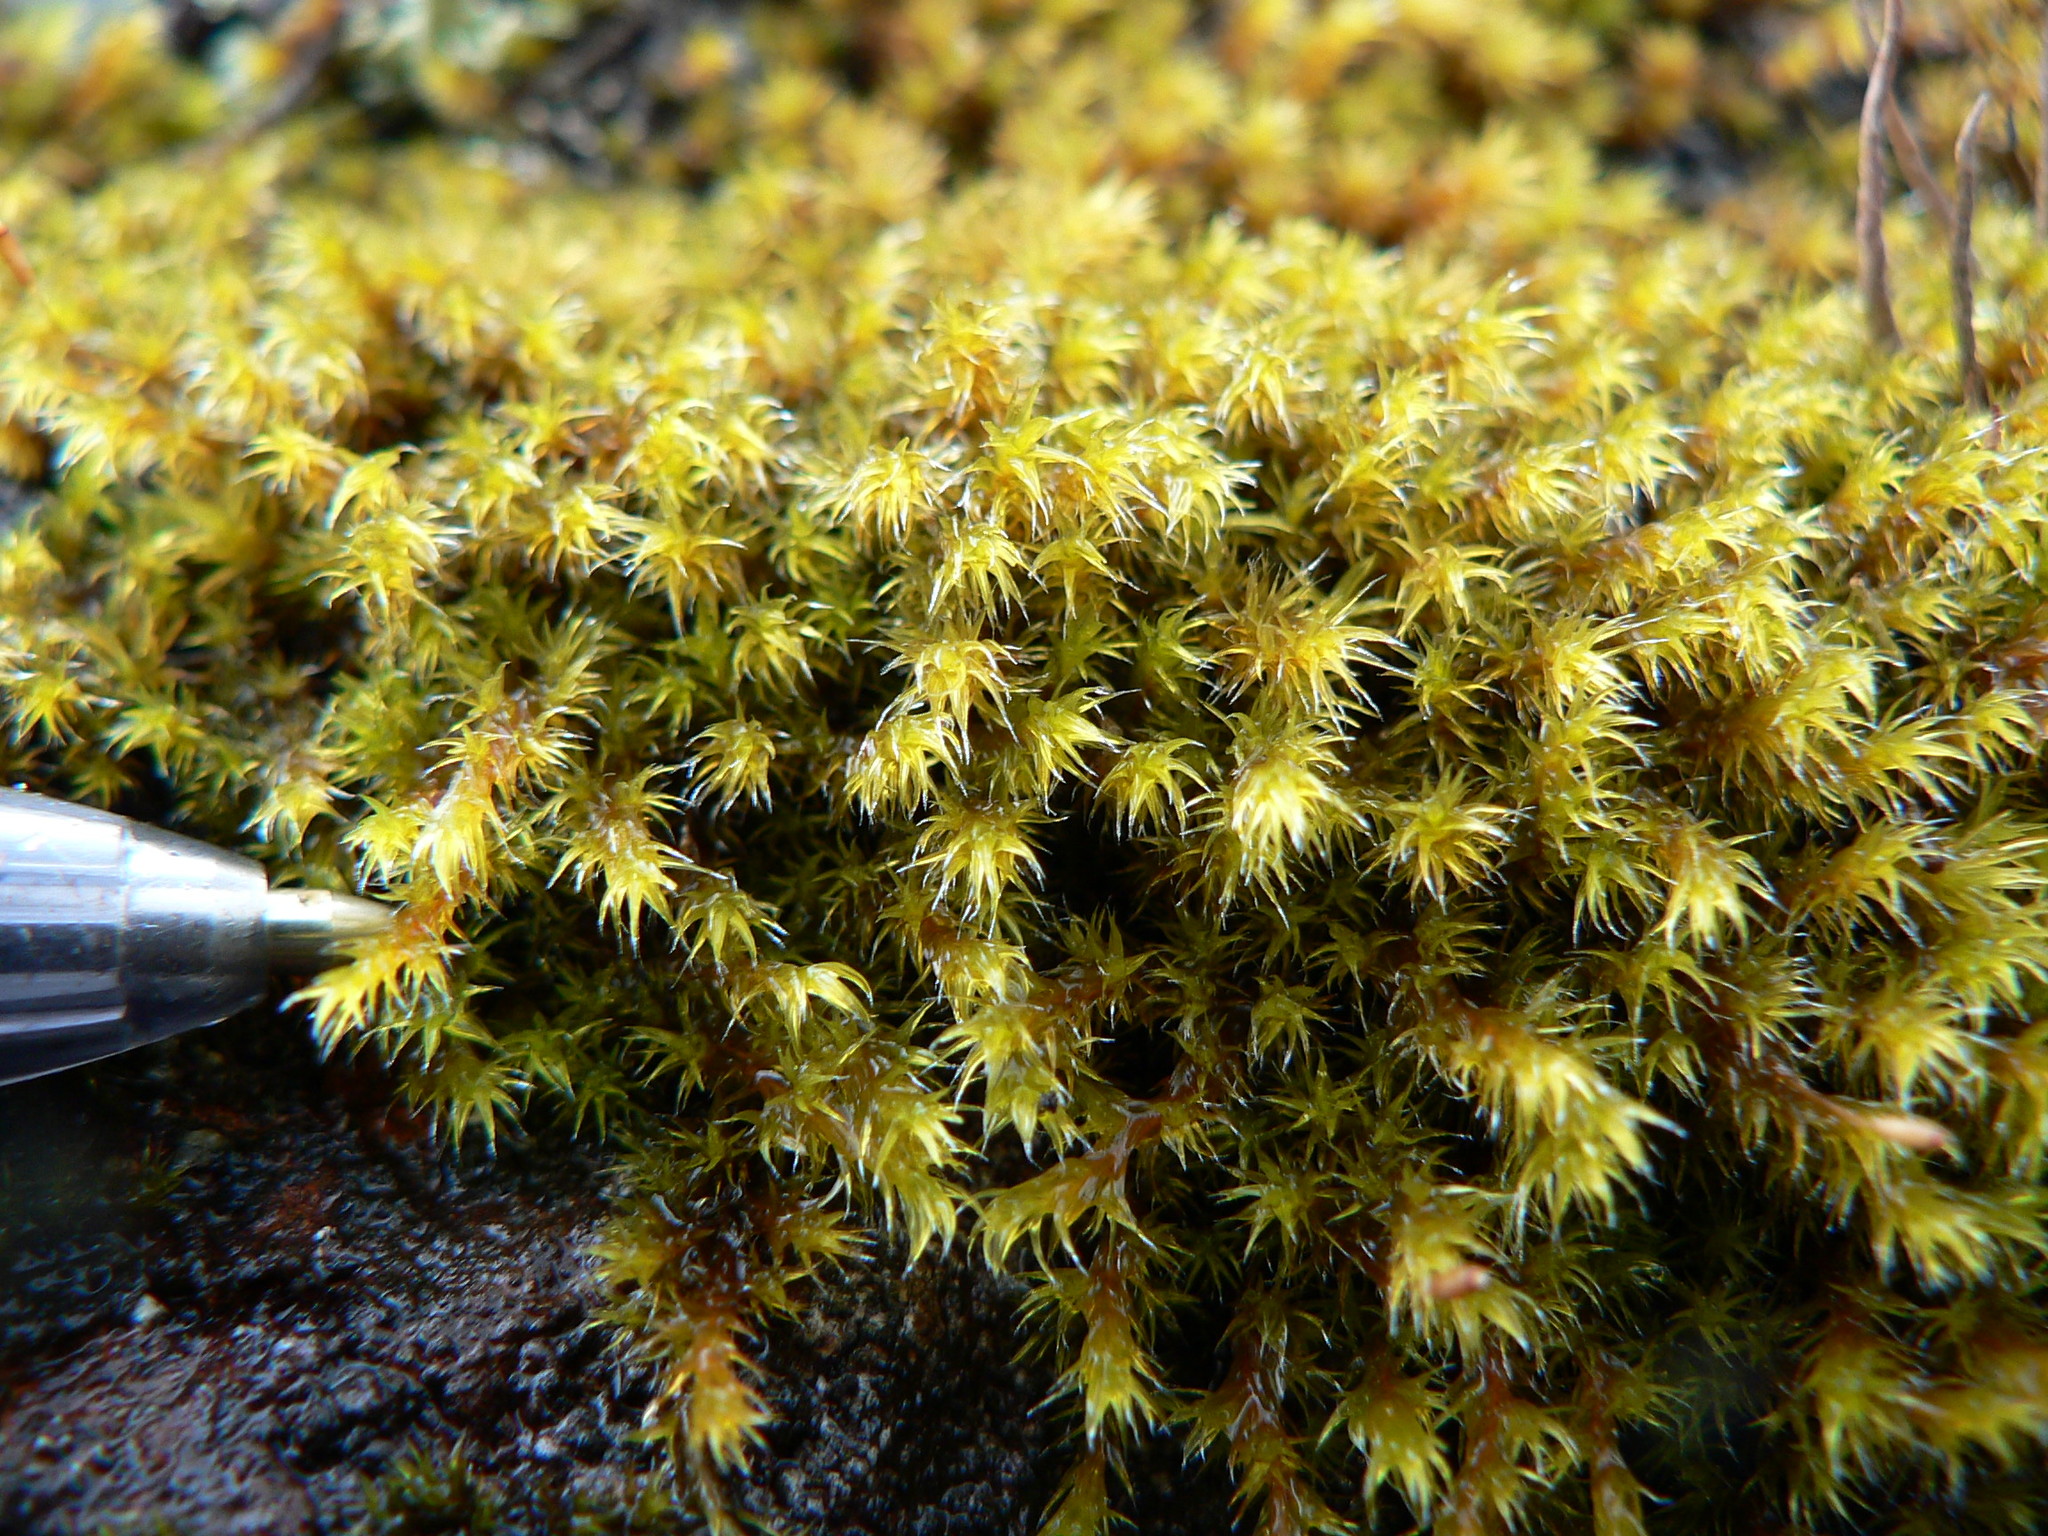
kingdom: Plantae
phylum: Bryophyta
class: Bryopsida
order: Grimmiales
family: Grimmiaceae
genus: Niphotrichum
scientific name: Niphotrichum elongatum
